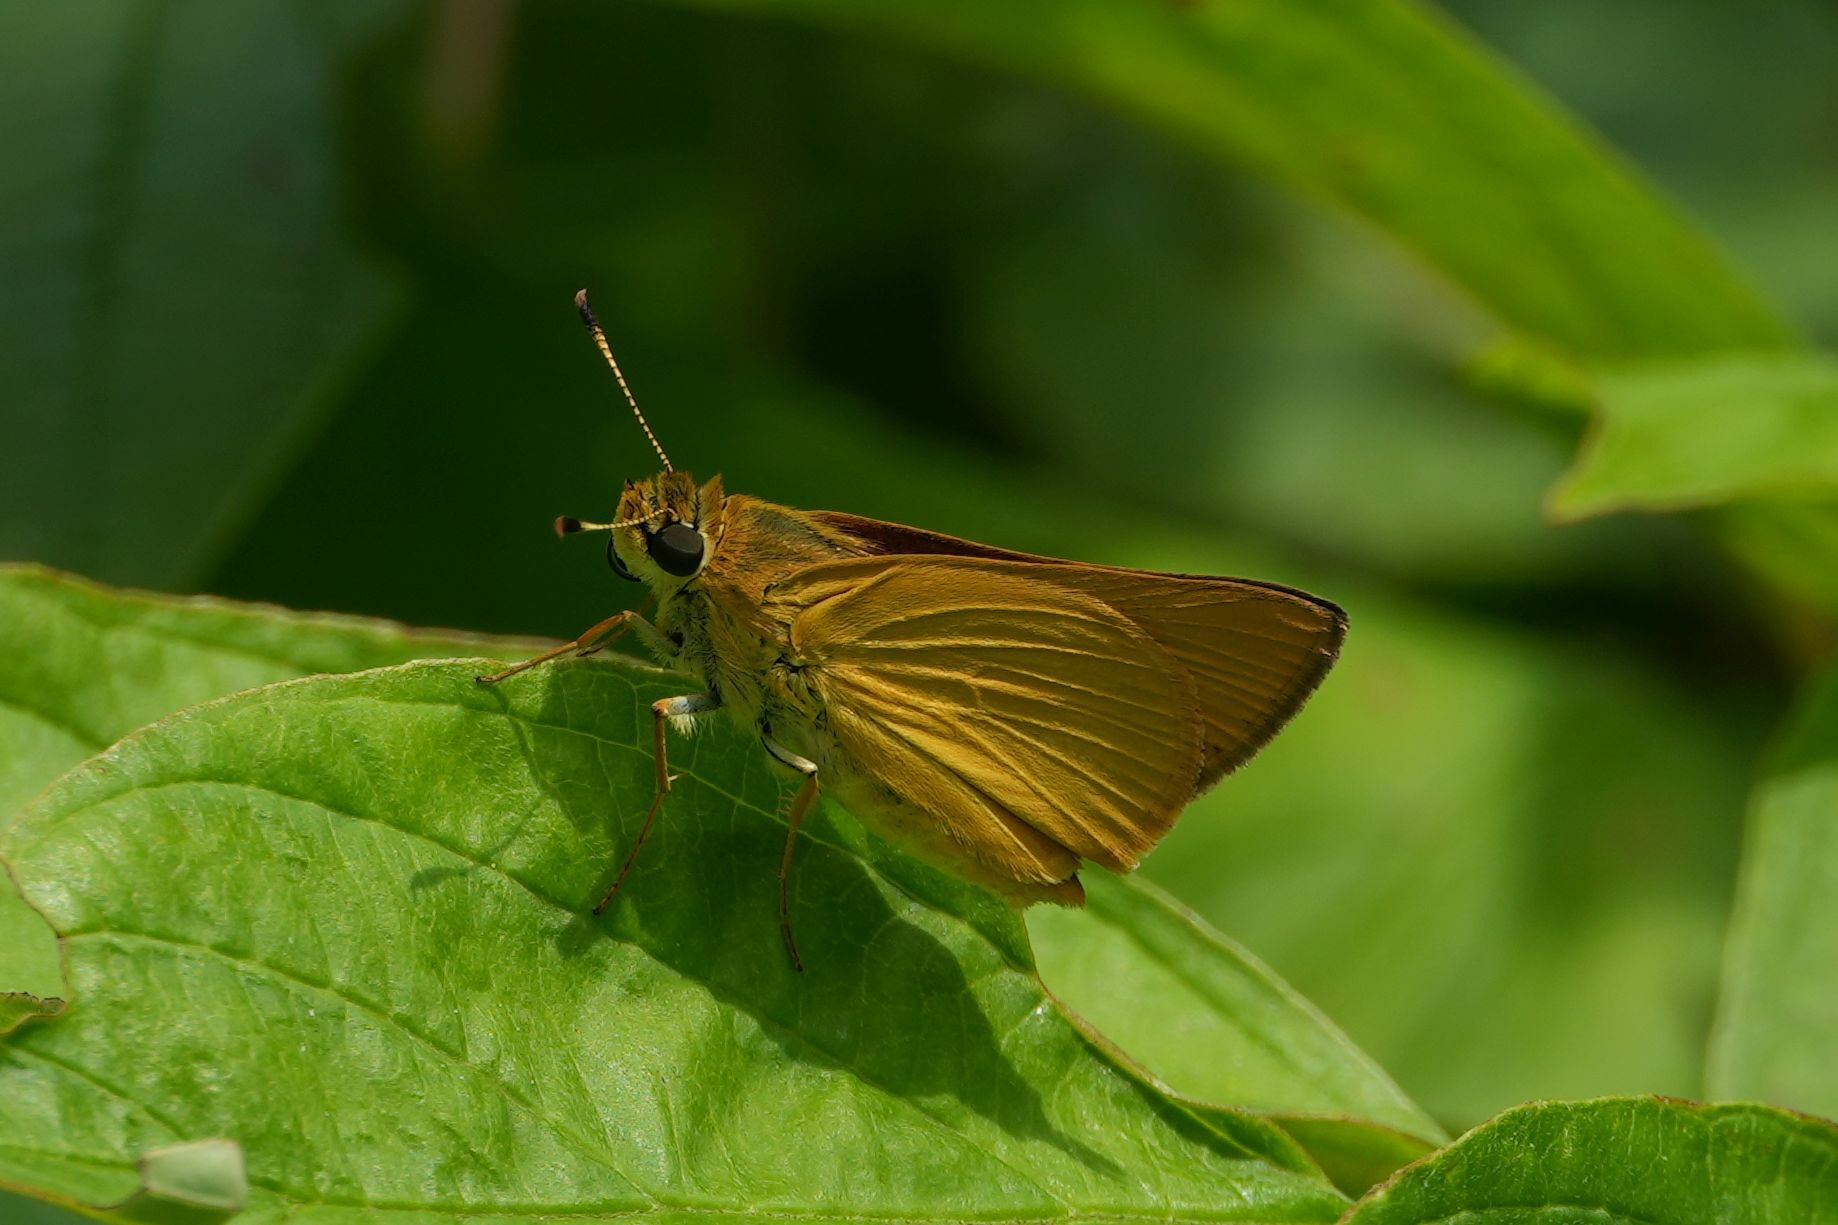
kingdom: Animalia
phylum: Arthropoda
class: Insecta
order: Lepidoptera
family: Hesperiidae
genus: Atrytone
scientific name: Atrytone delaware
